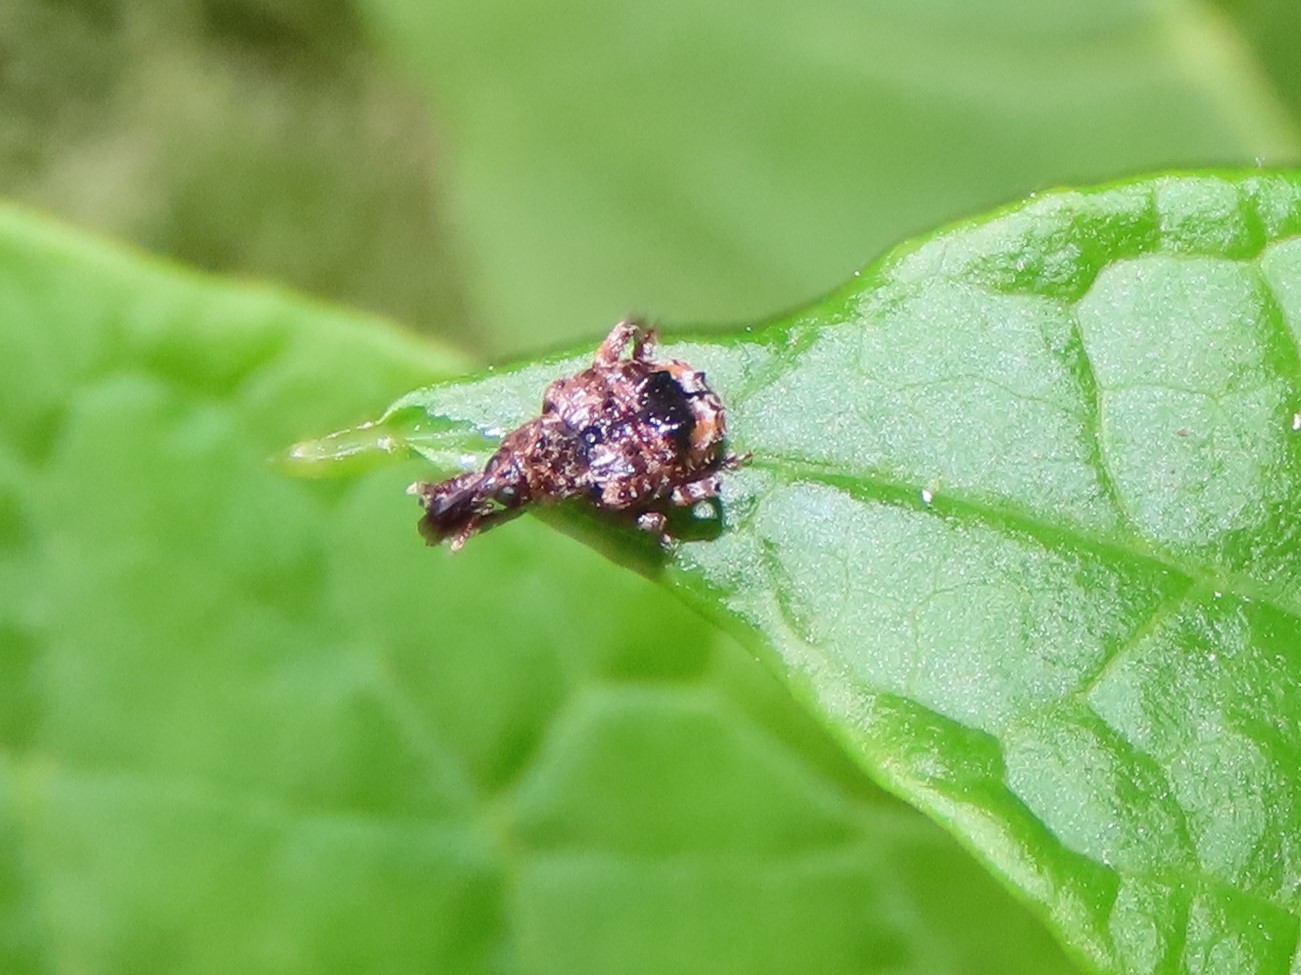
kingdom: Animalia
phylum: Arthropoda
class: Insecta
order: Coleoptera
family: Curculionidae
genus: Conotrachelus
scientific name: Conotrachelus nenuphar
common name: Plum curculio
